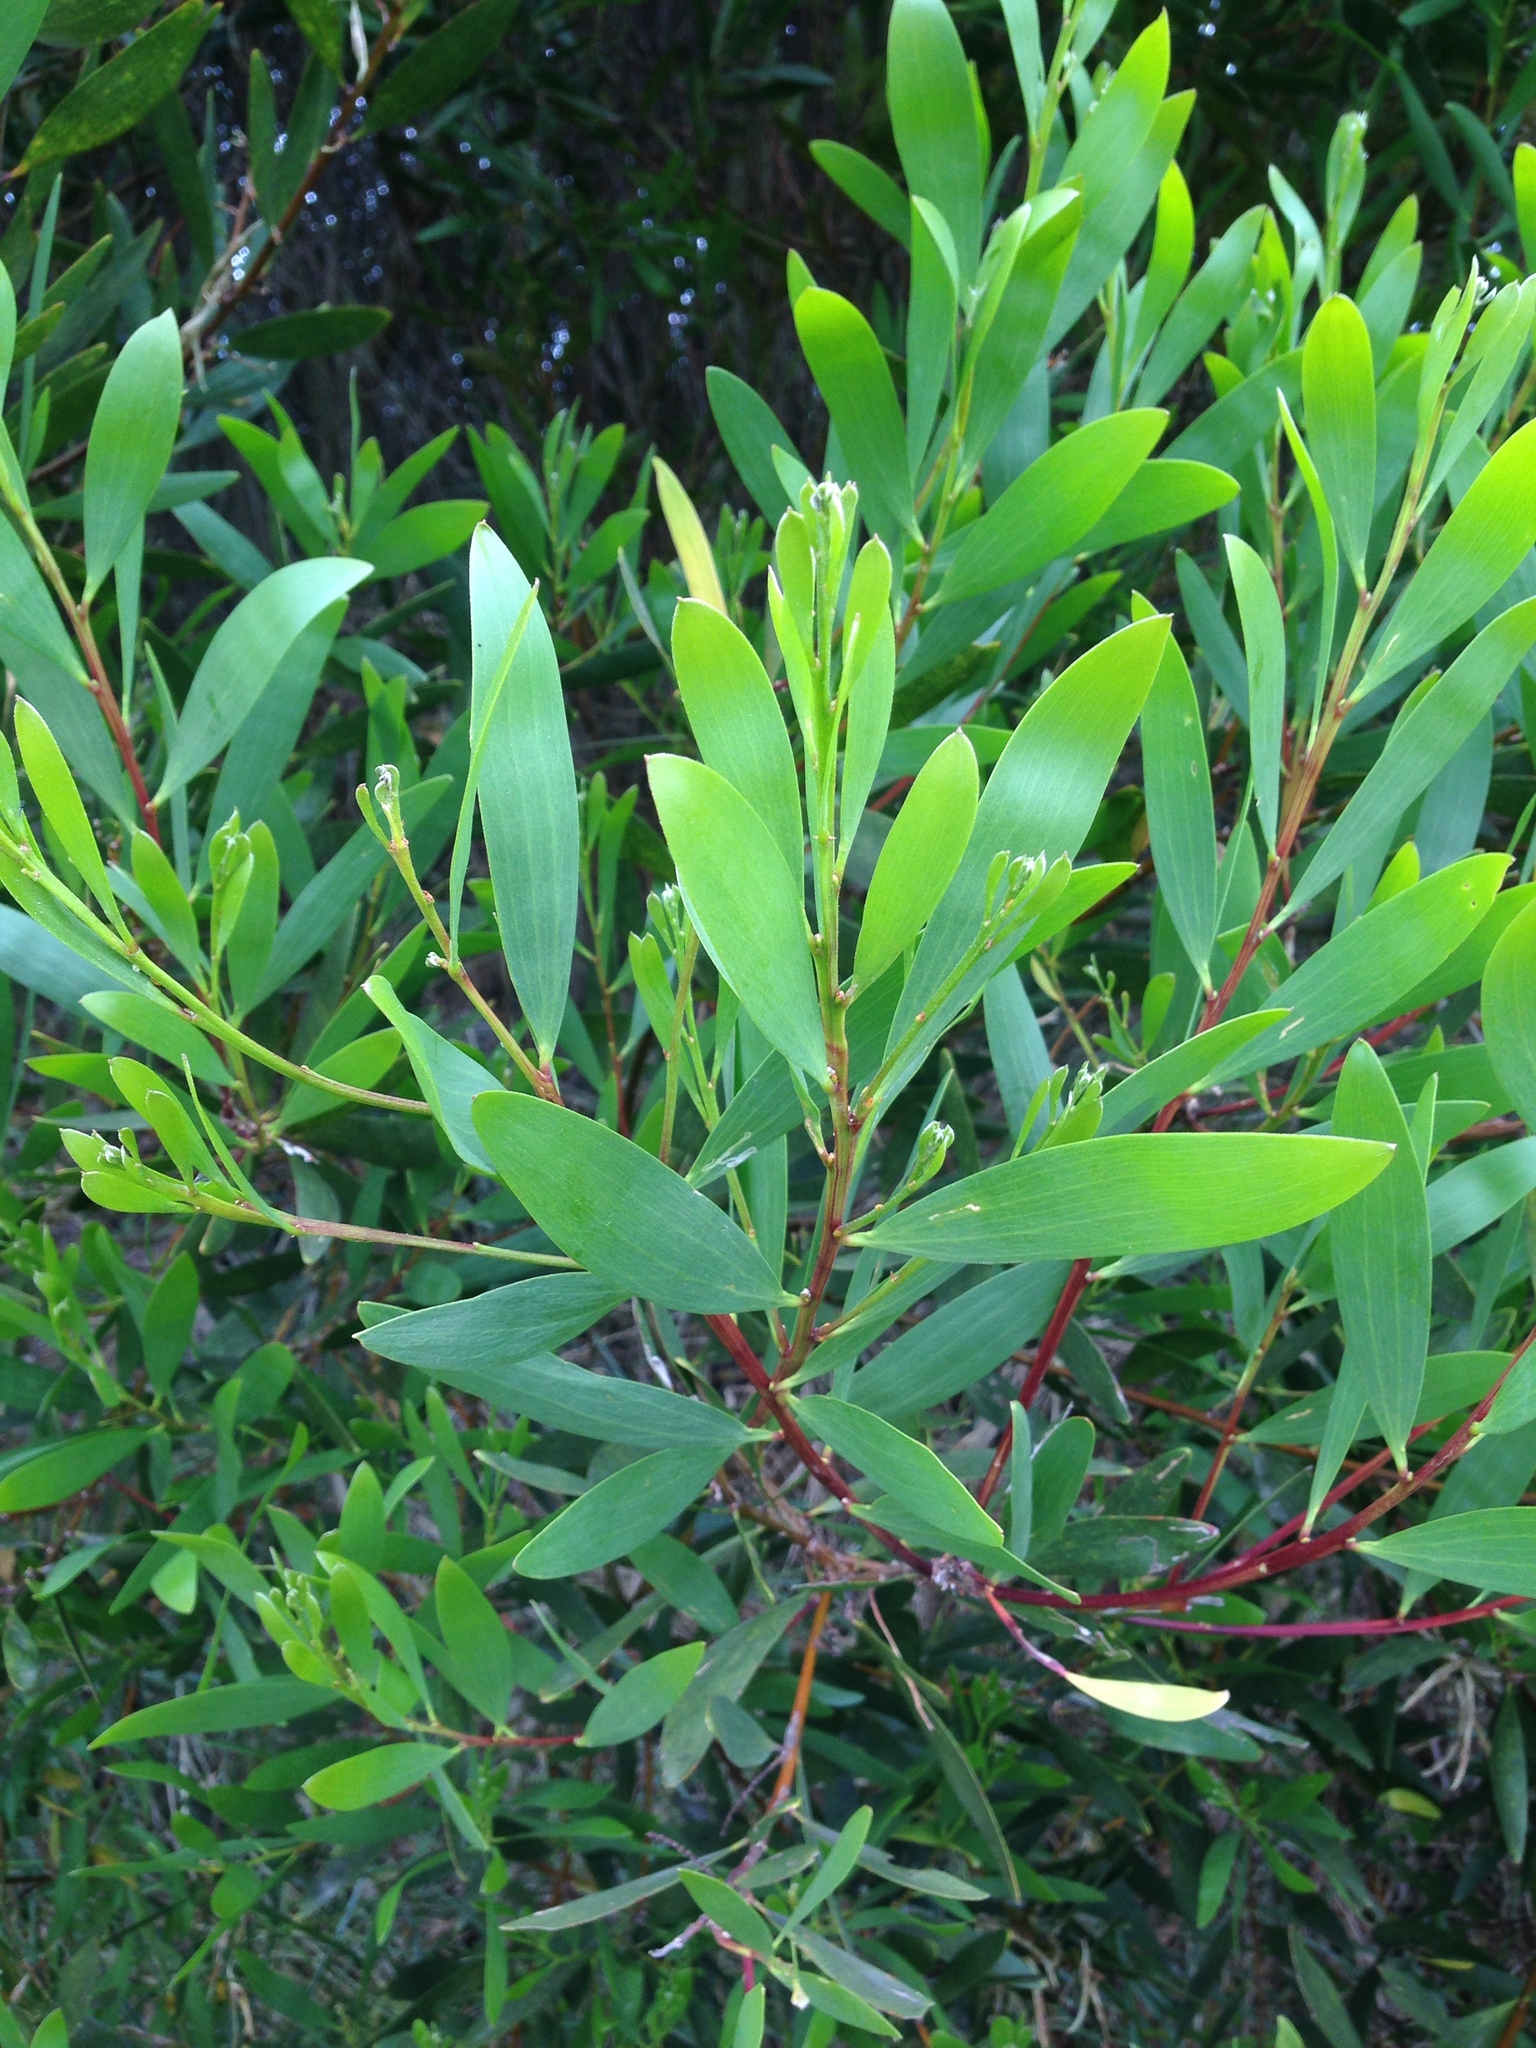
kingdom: Plantae
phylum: Tracheophyta
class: Magnoliopsida
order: Fabales
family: Fabaceae
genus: Acacia
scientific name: Acacia longifolia
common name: Sydney golden wattle
